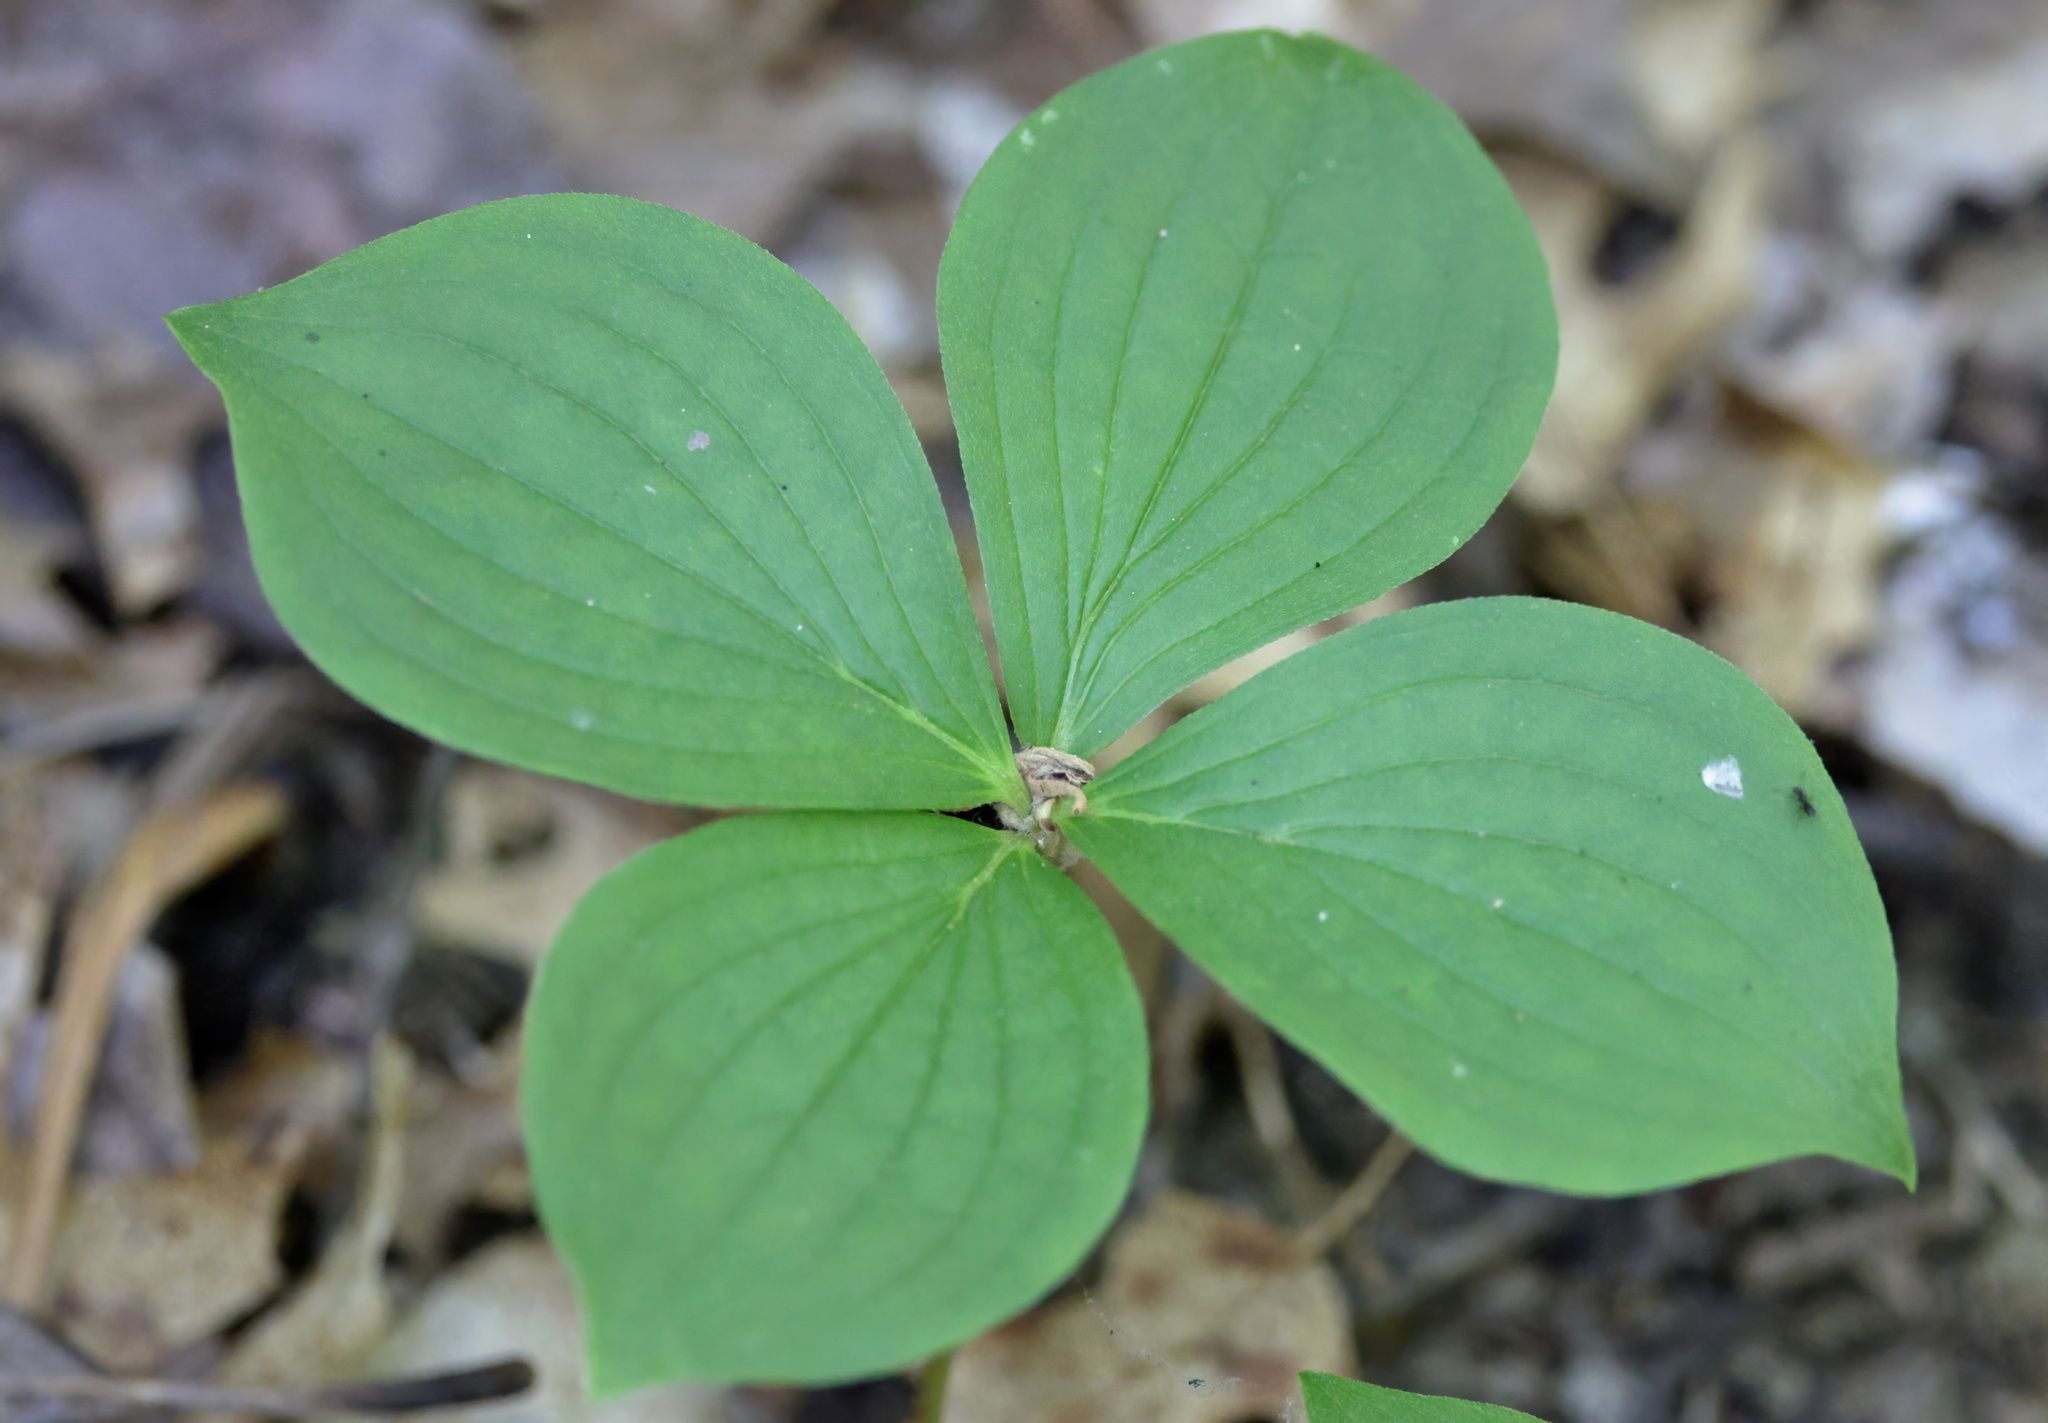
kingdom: Plantae
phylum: Tracheophyta
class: Magnoliopsida
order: Cornales
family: Cornaceae
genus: Cornus
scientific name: Cornus canadensis
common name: Creeping dogwood
